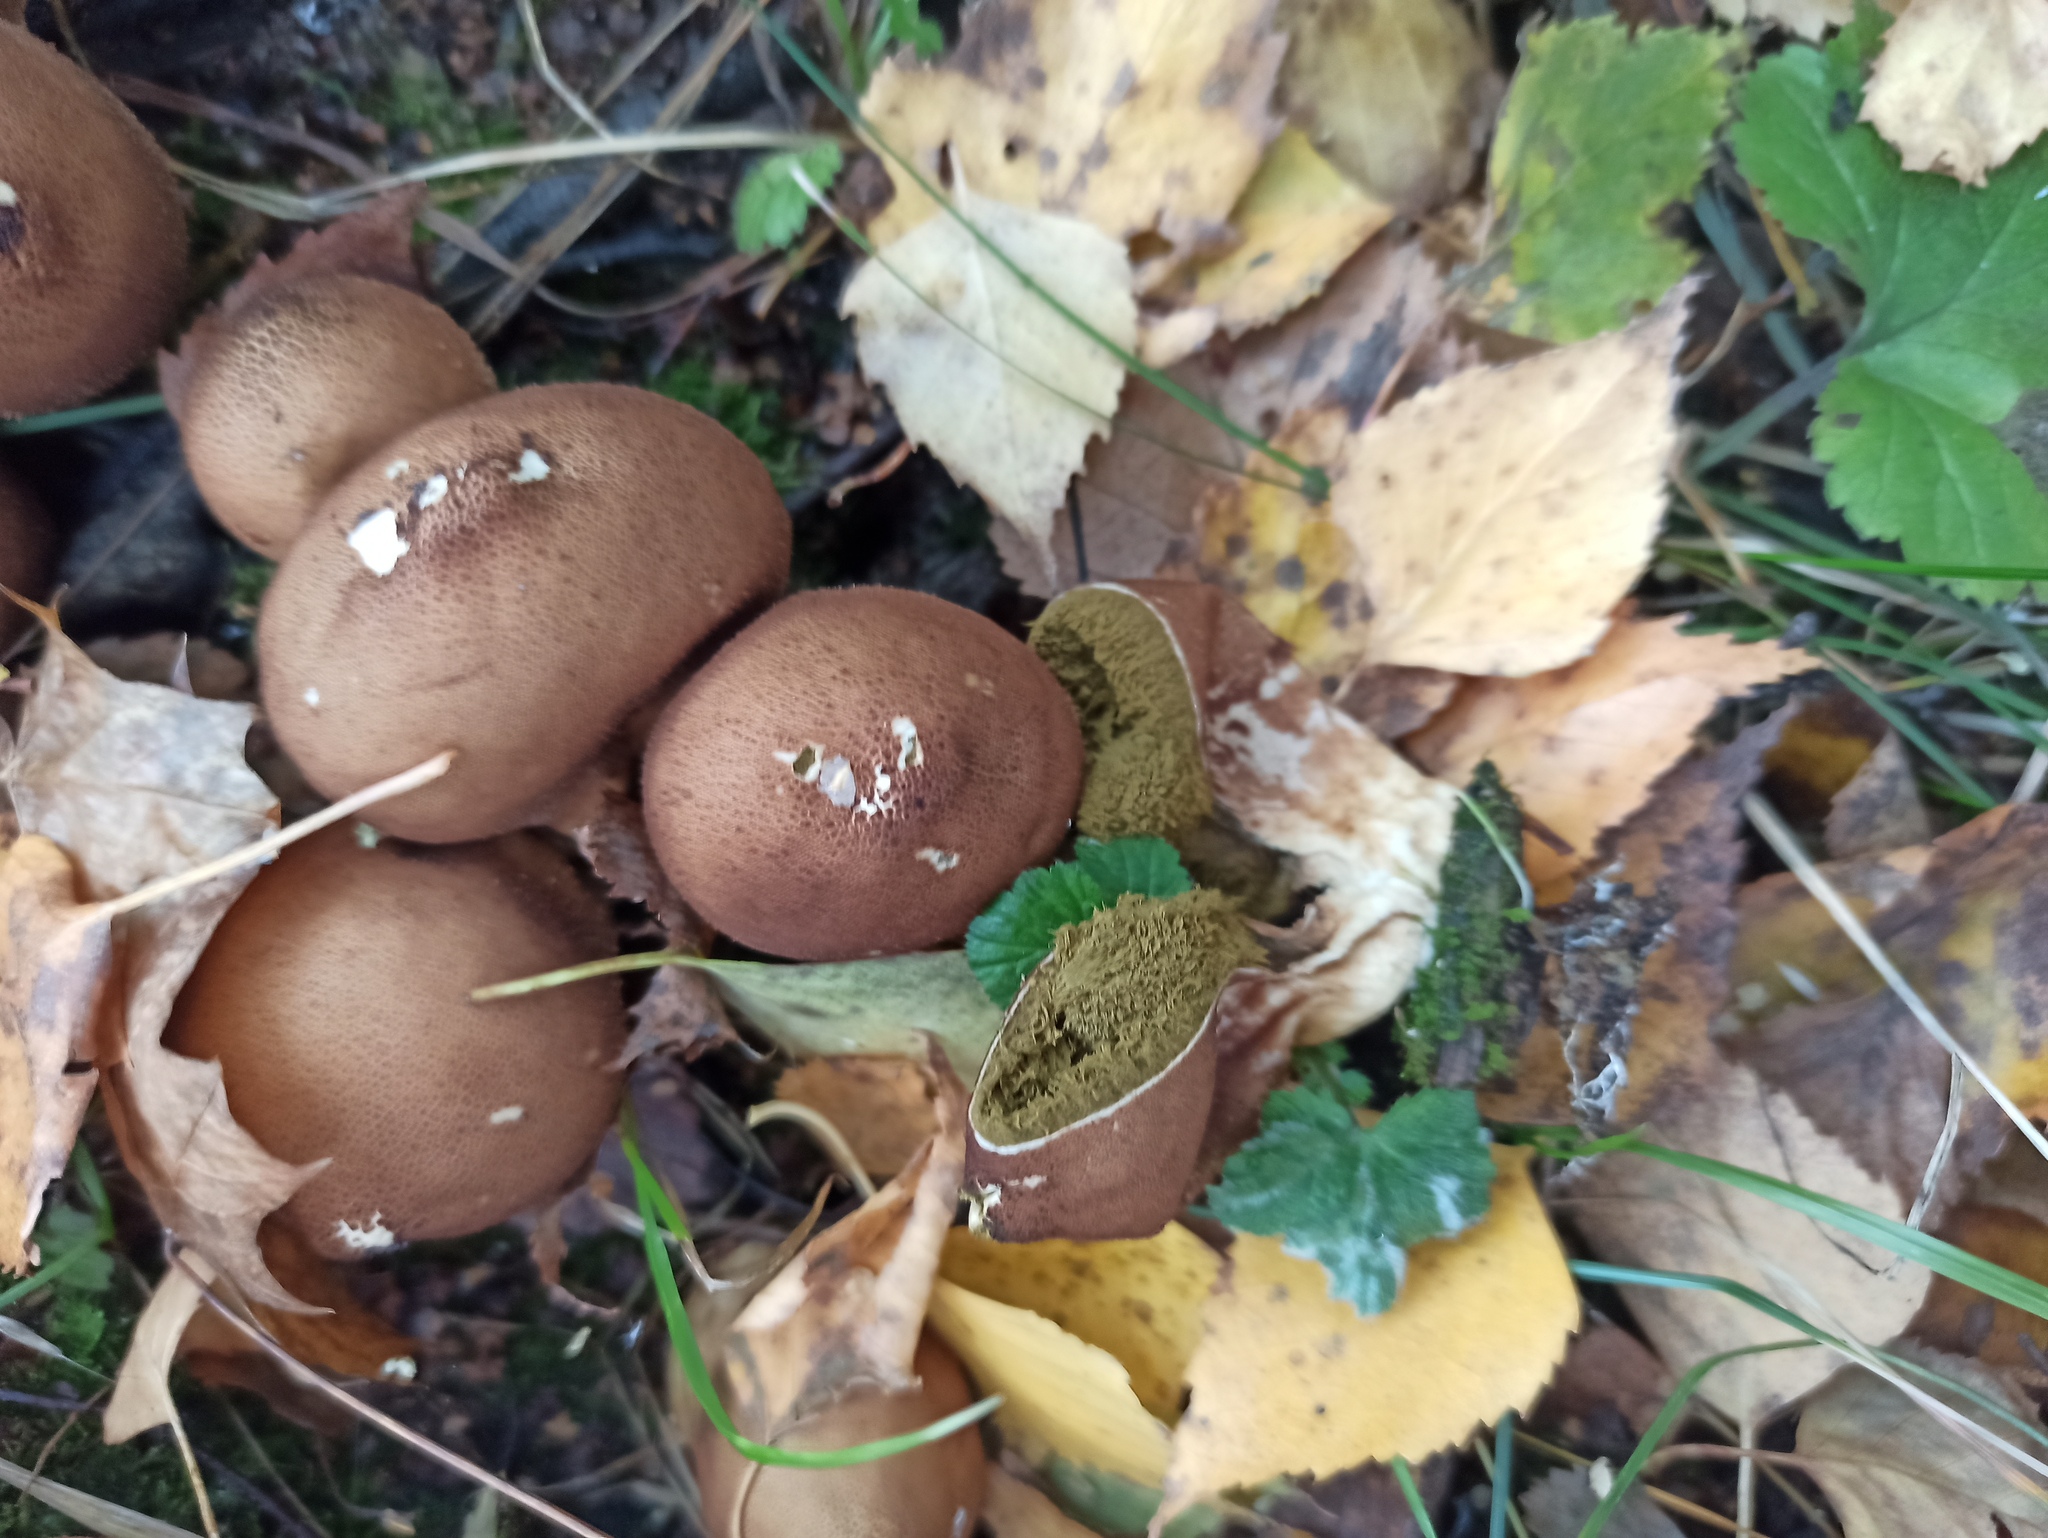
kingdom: Fungi
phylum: Basidiomycota
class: Agaricomycetes
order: Agaricales
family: Lycoperdaceae
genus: Apioperdon
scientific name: Apioperdon pyriforme
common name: Pear-shaped puffball
